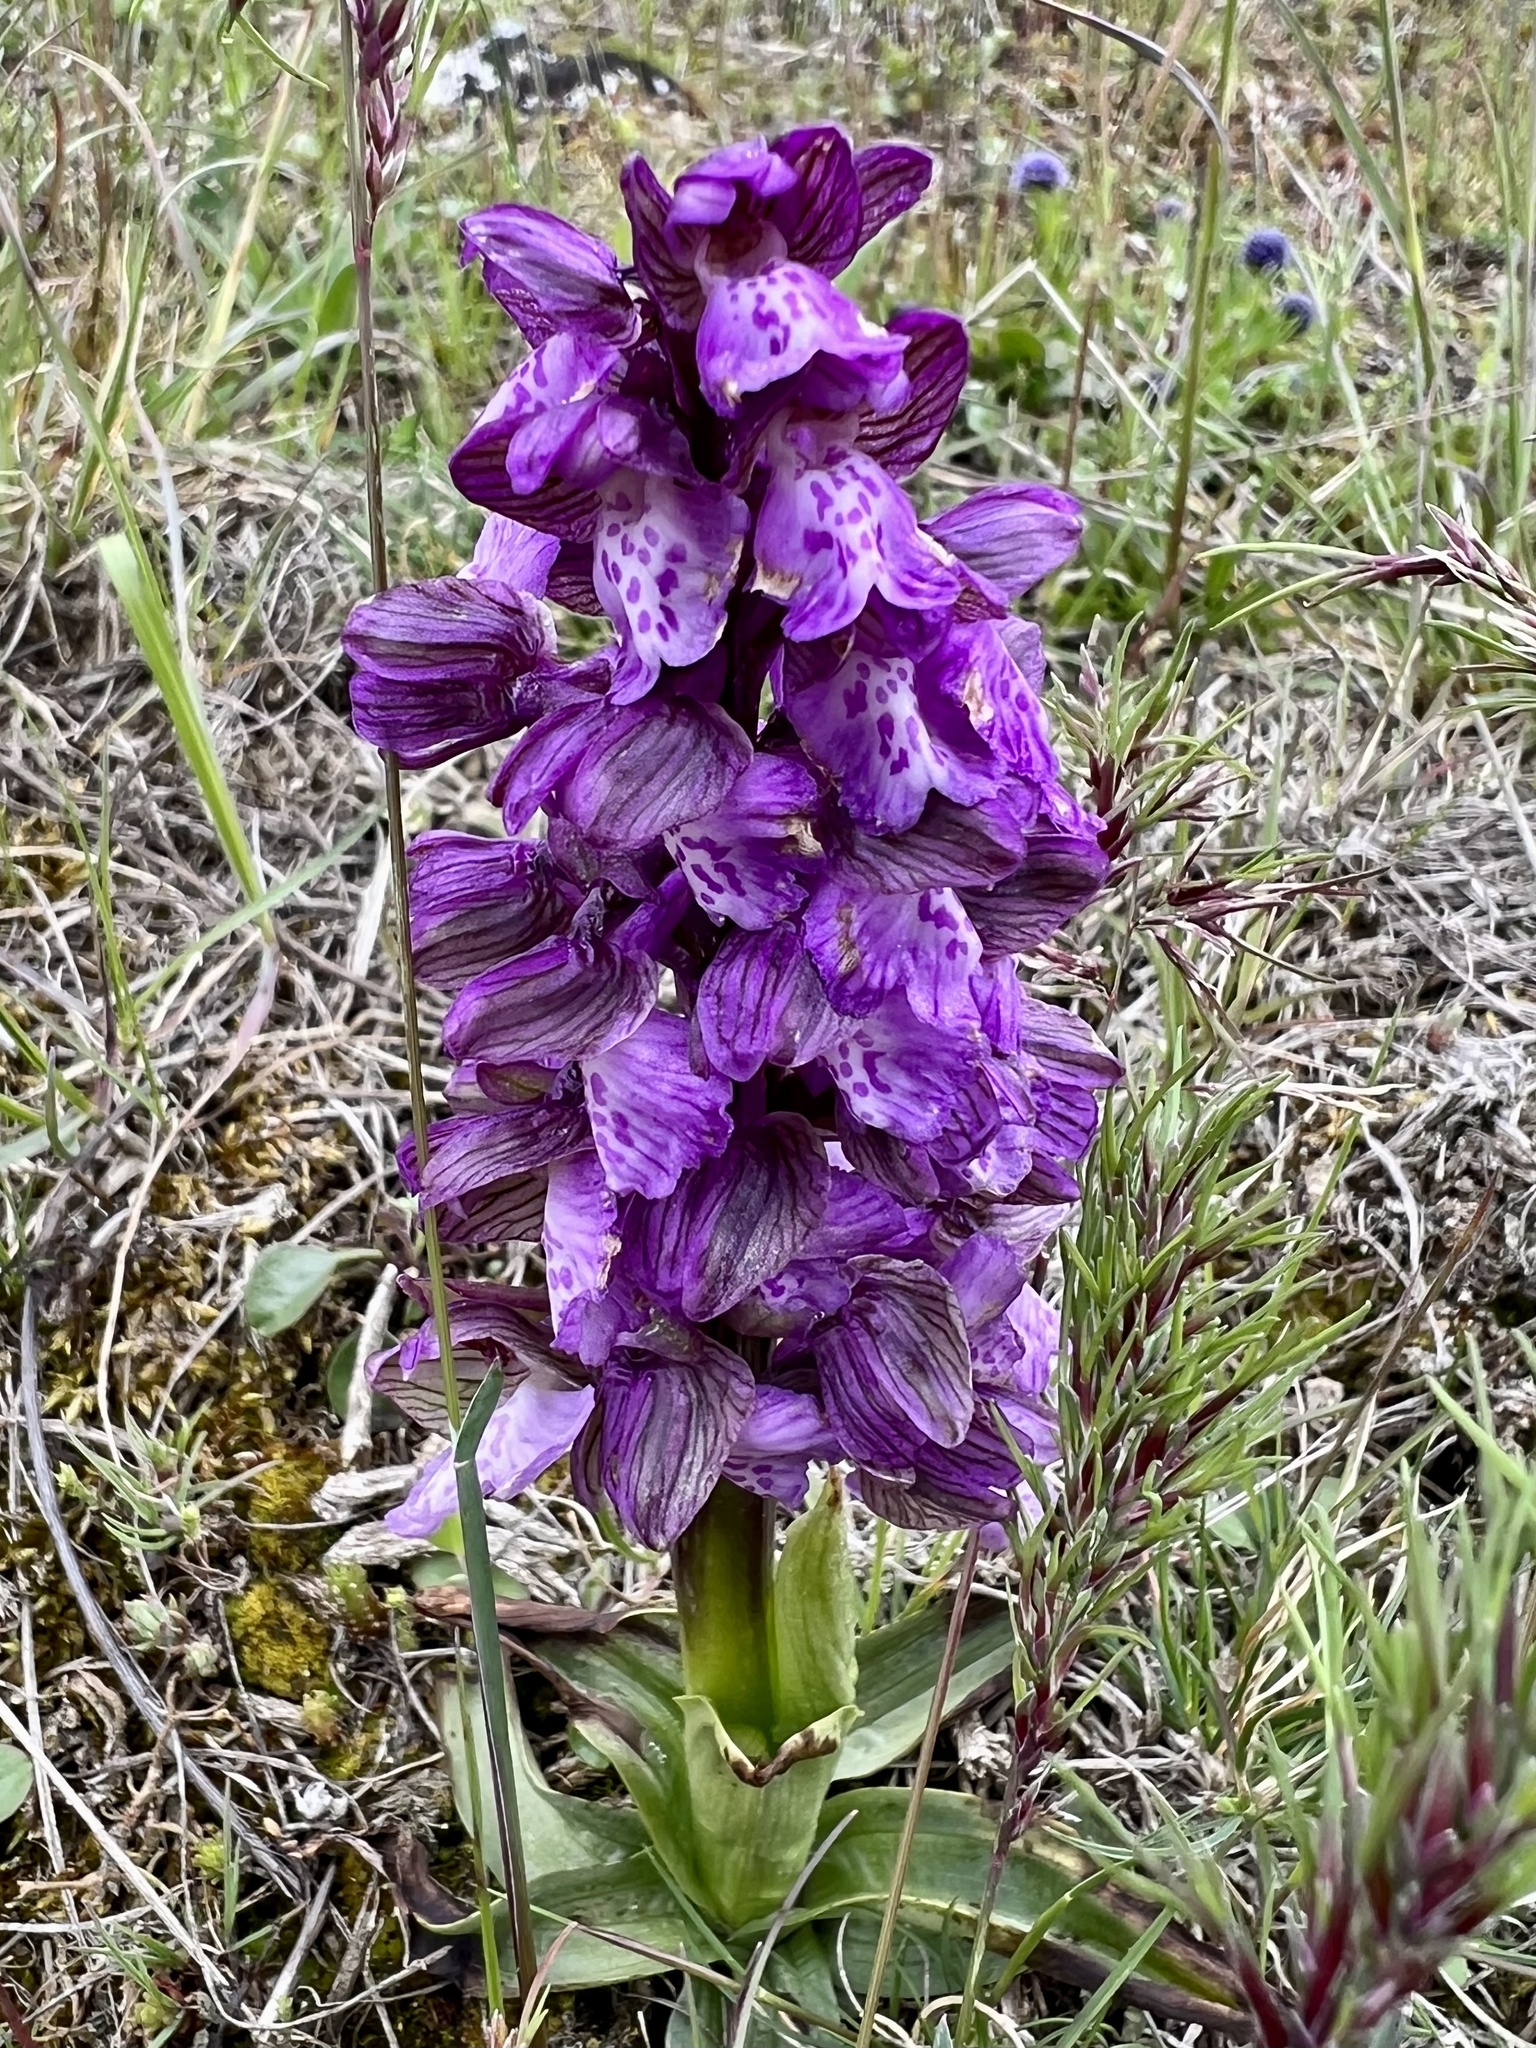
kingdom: Plantae
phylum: Tracheophyta
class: Liliopsida
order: Asparagales
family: Orchidaceae
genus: Anacamptis
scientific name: Anacamptis morio
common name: Green-winged orchid
